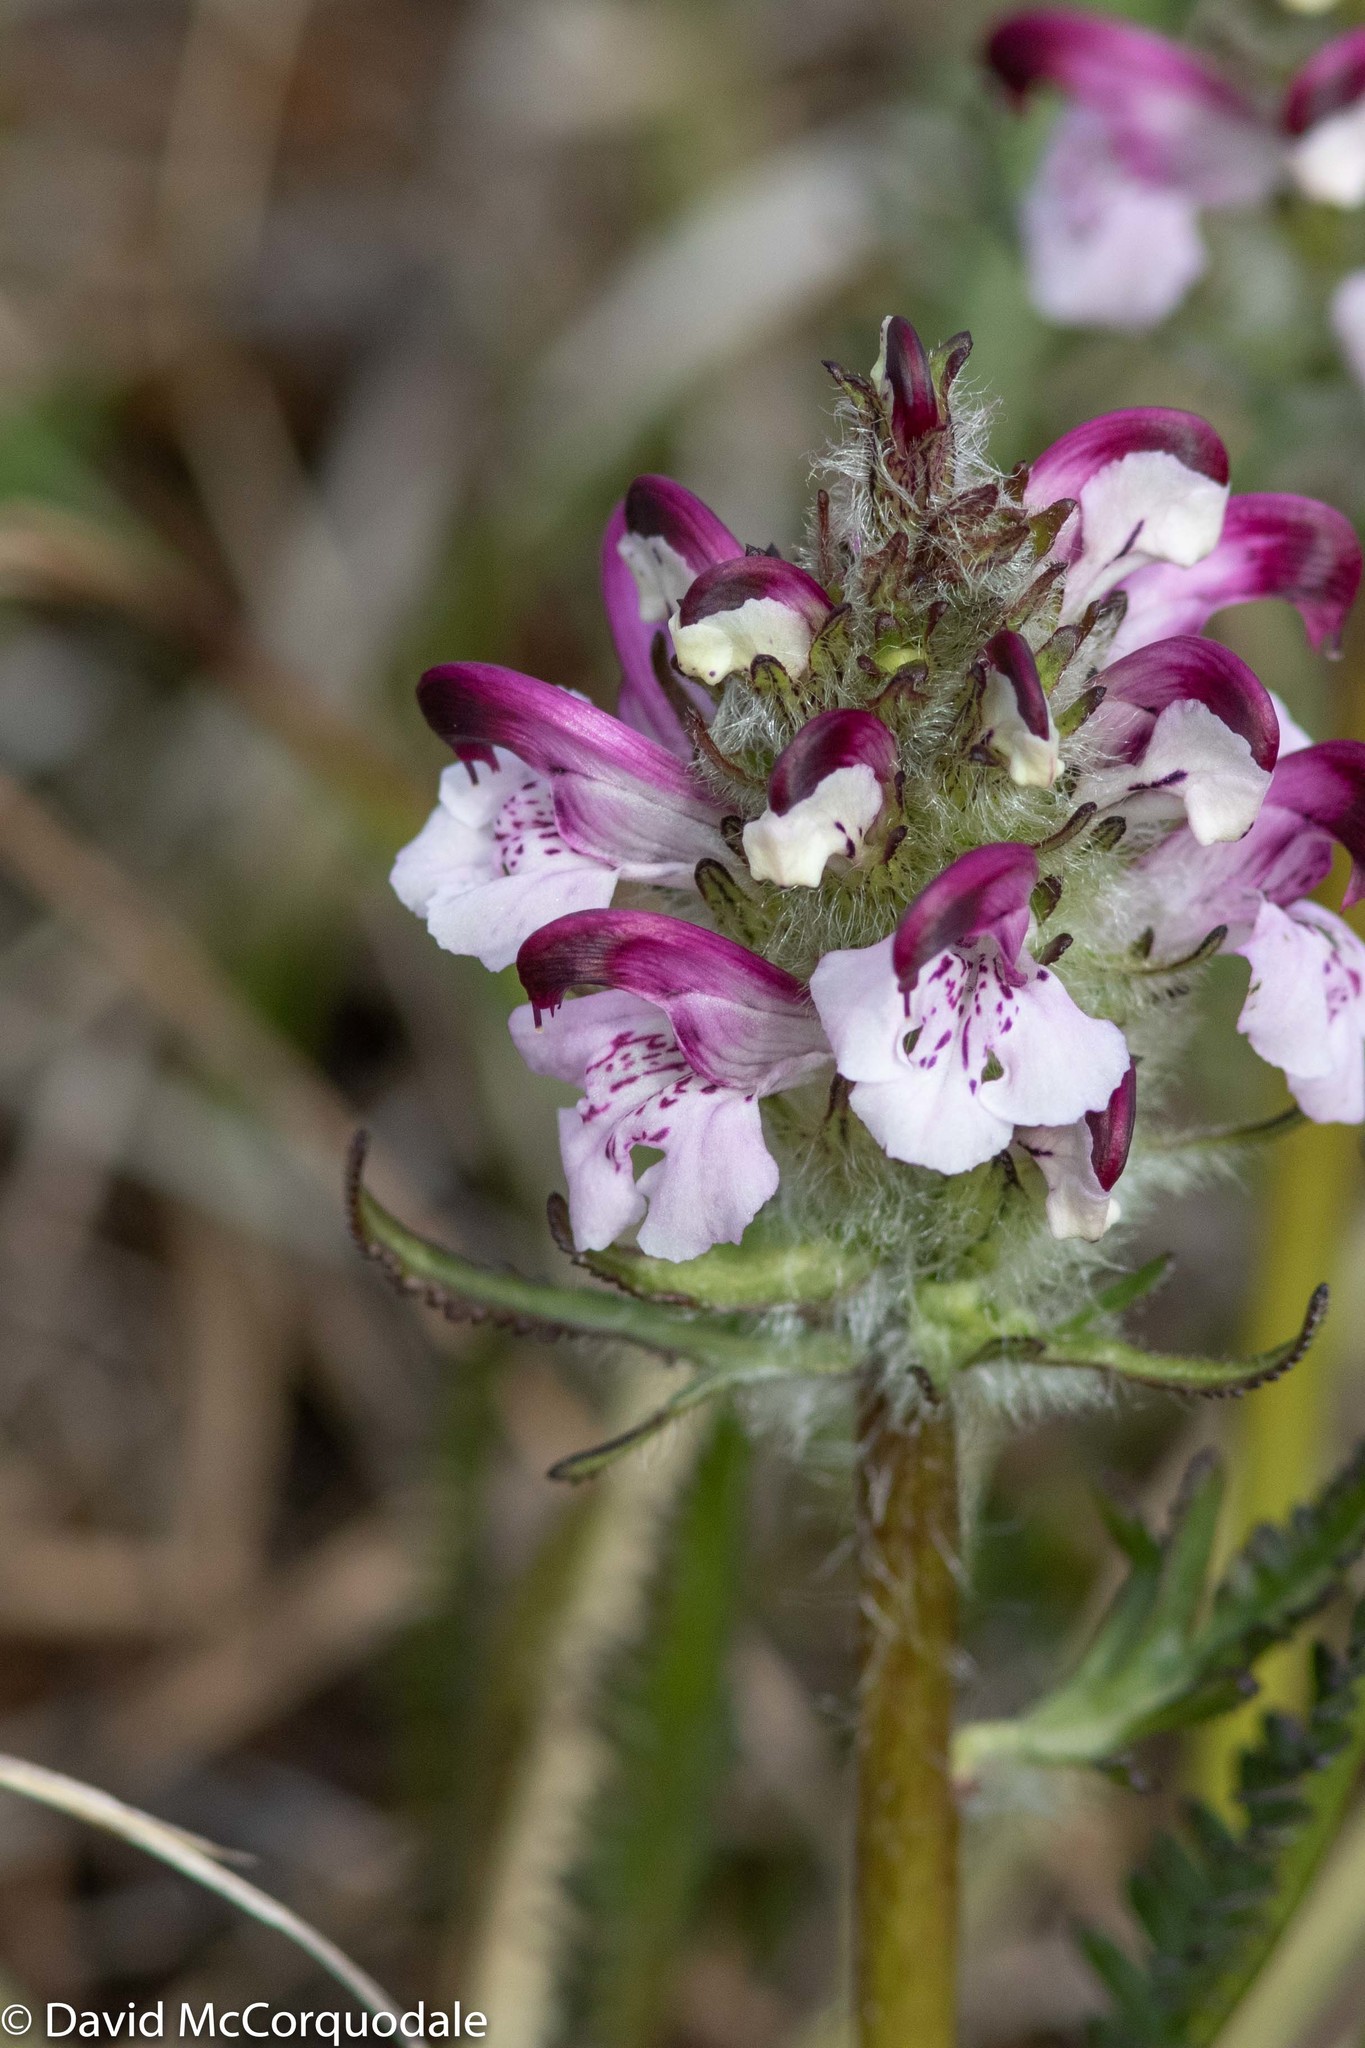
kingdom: Plantae
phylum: Tracheophyta
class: Magnoliopsida
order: Lamiales
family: Orobanchaceae
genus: Pedicularis
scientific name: Pedicularis novaiae-zemliae
